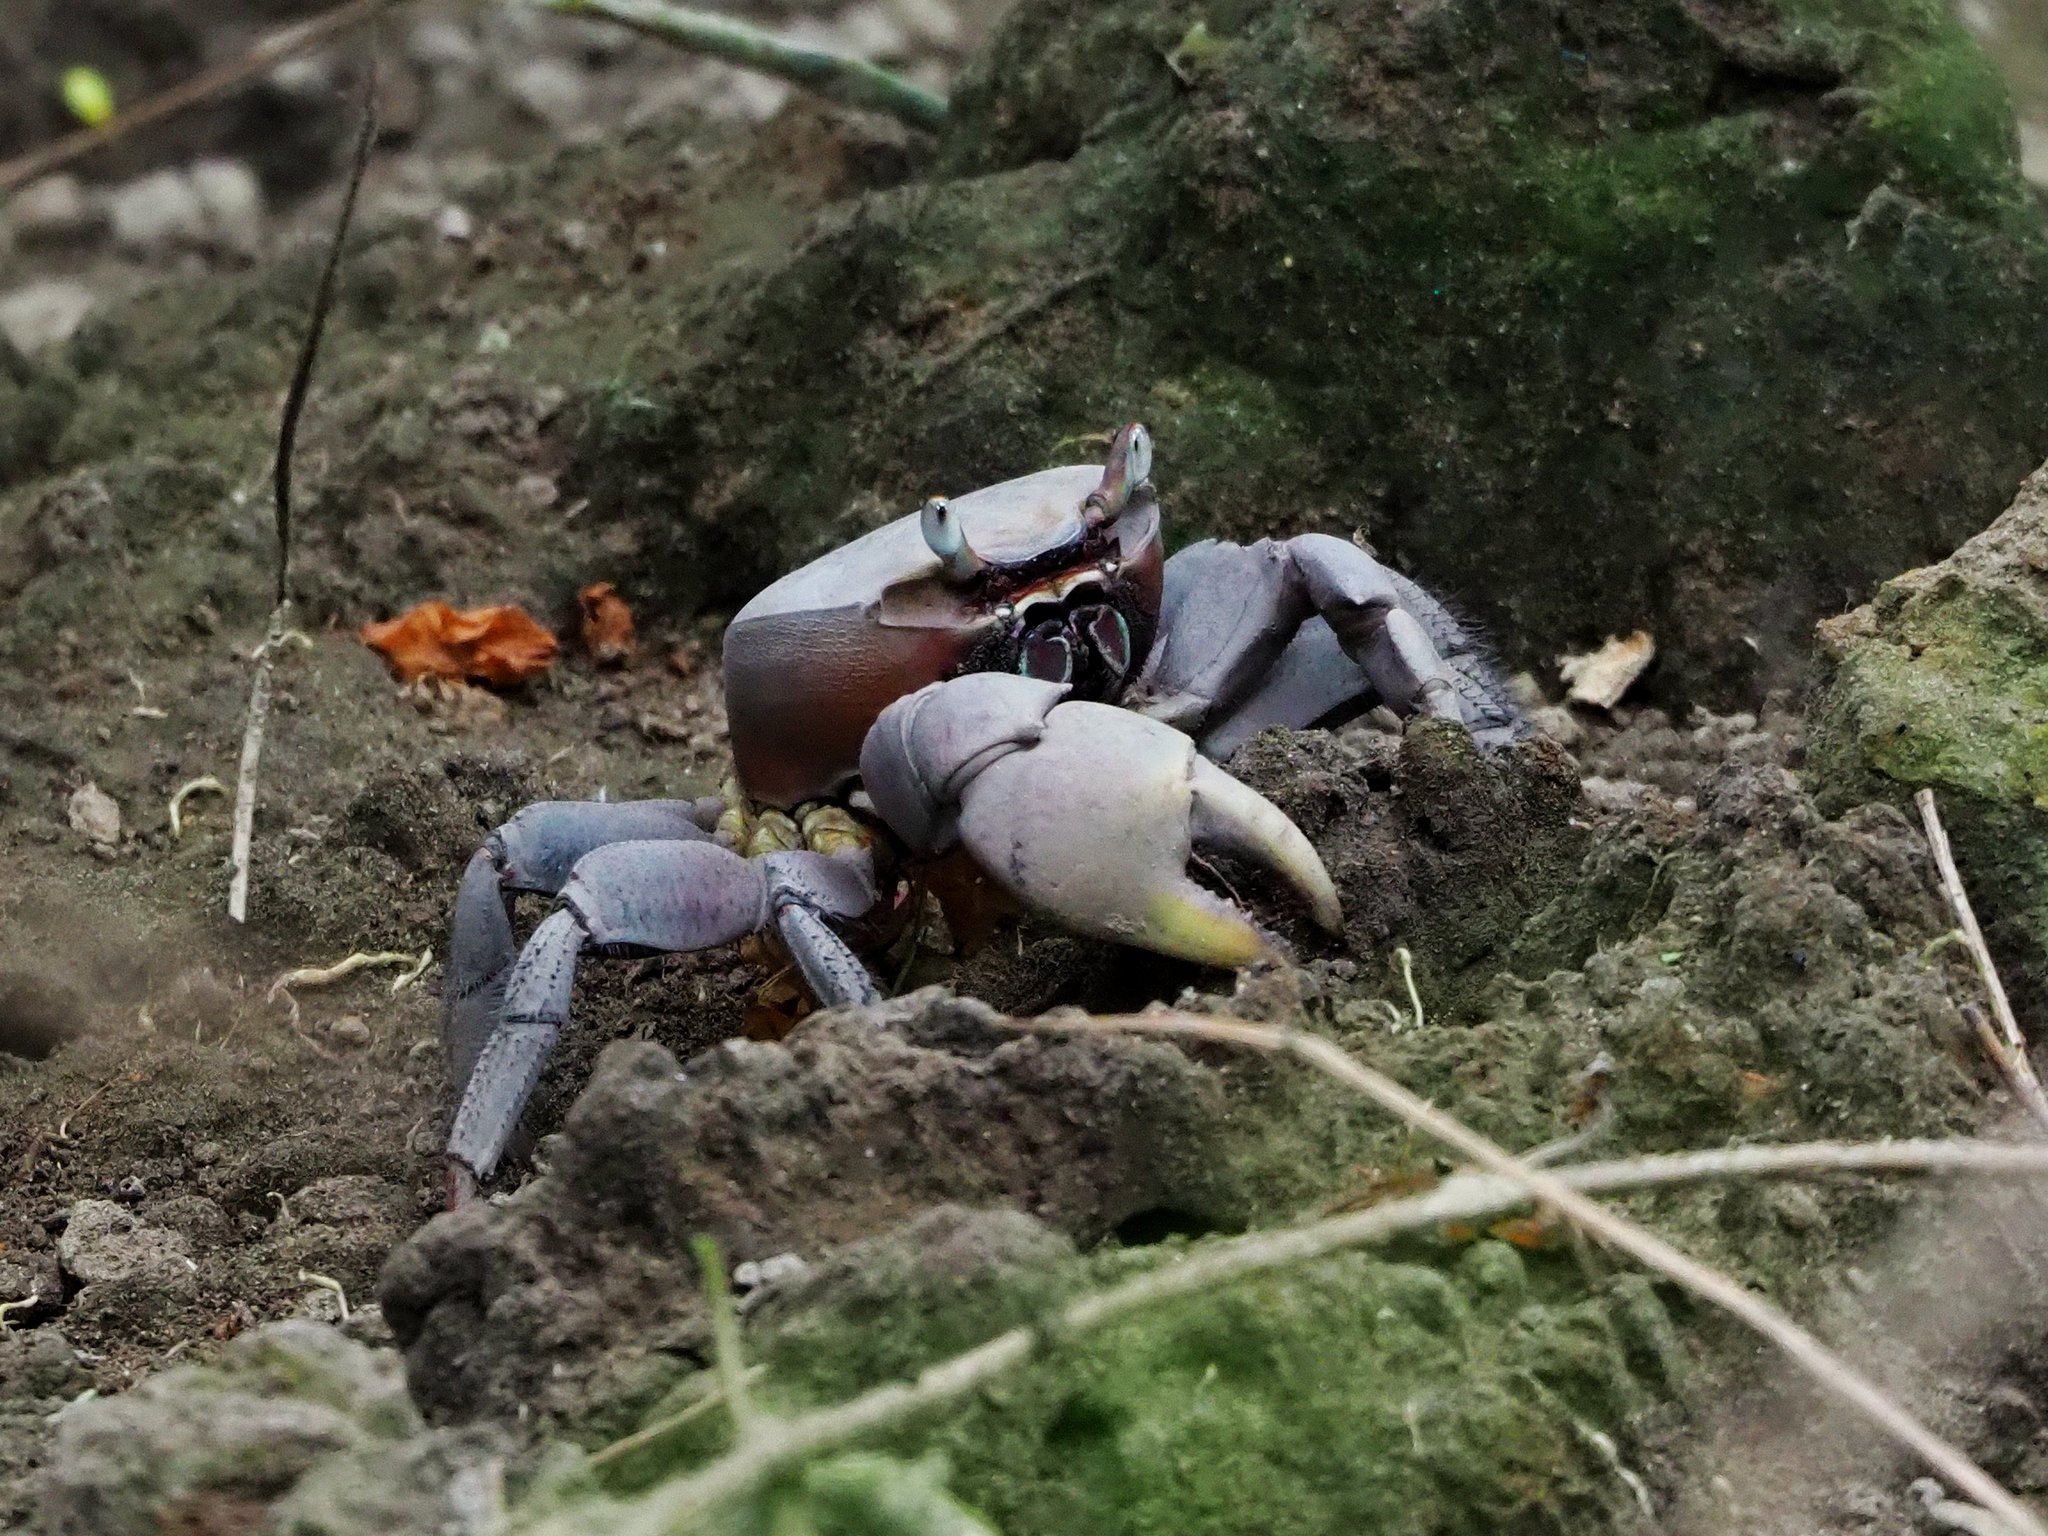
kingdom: Animalia
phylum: Arthropoda
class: Malacostraca
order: Decapoda
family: Gecarcinidae
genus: Cardisoma
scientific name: Cardisoma carnifex
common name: Brown land crab
